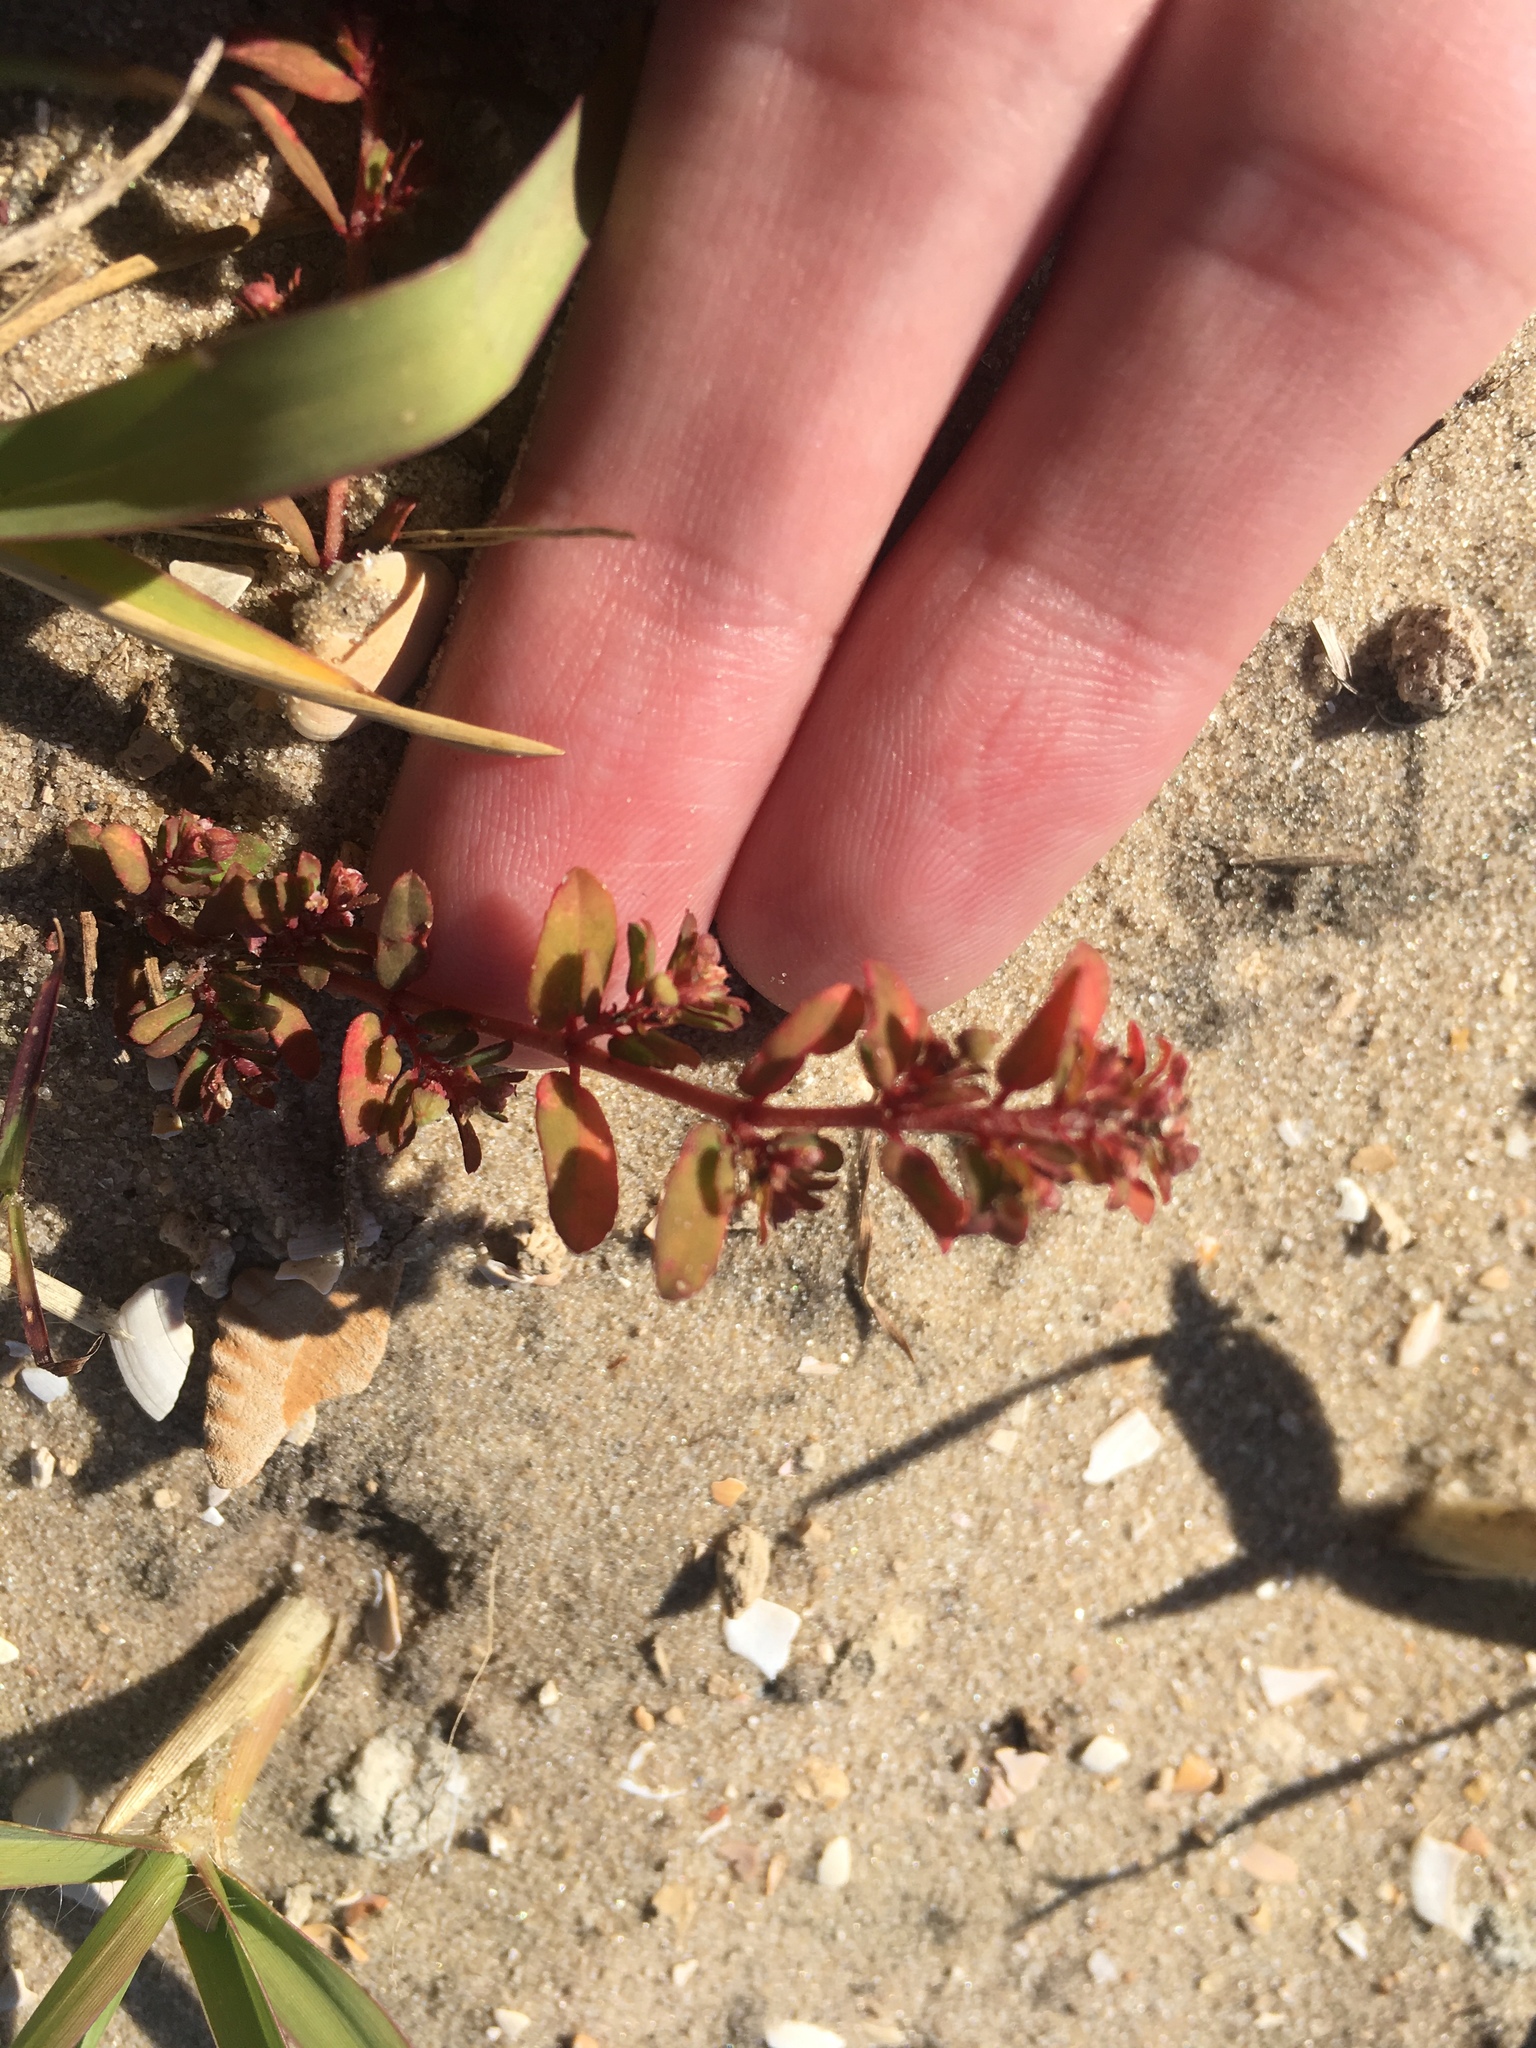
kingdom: Plantae
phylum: Tracheophyta
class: Magnoliopsida
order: Malpighiales
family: Euphorbiaceae
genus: Euphorbia
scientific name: Euphorbia maculata
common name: Spotted spurge
